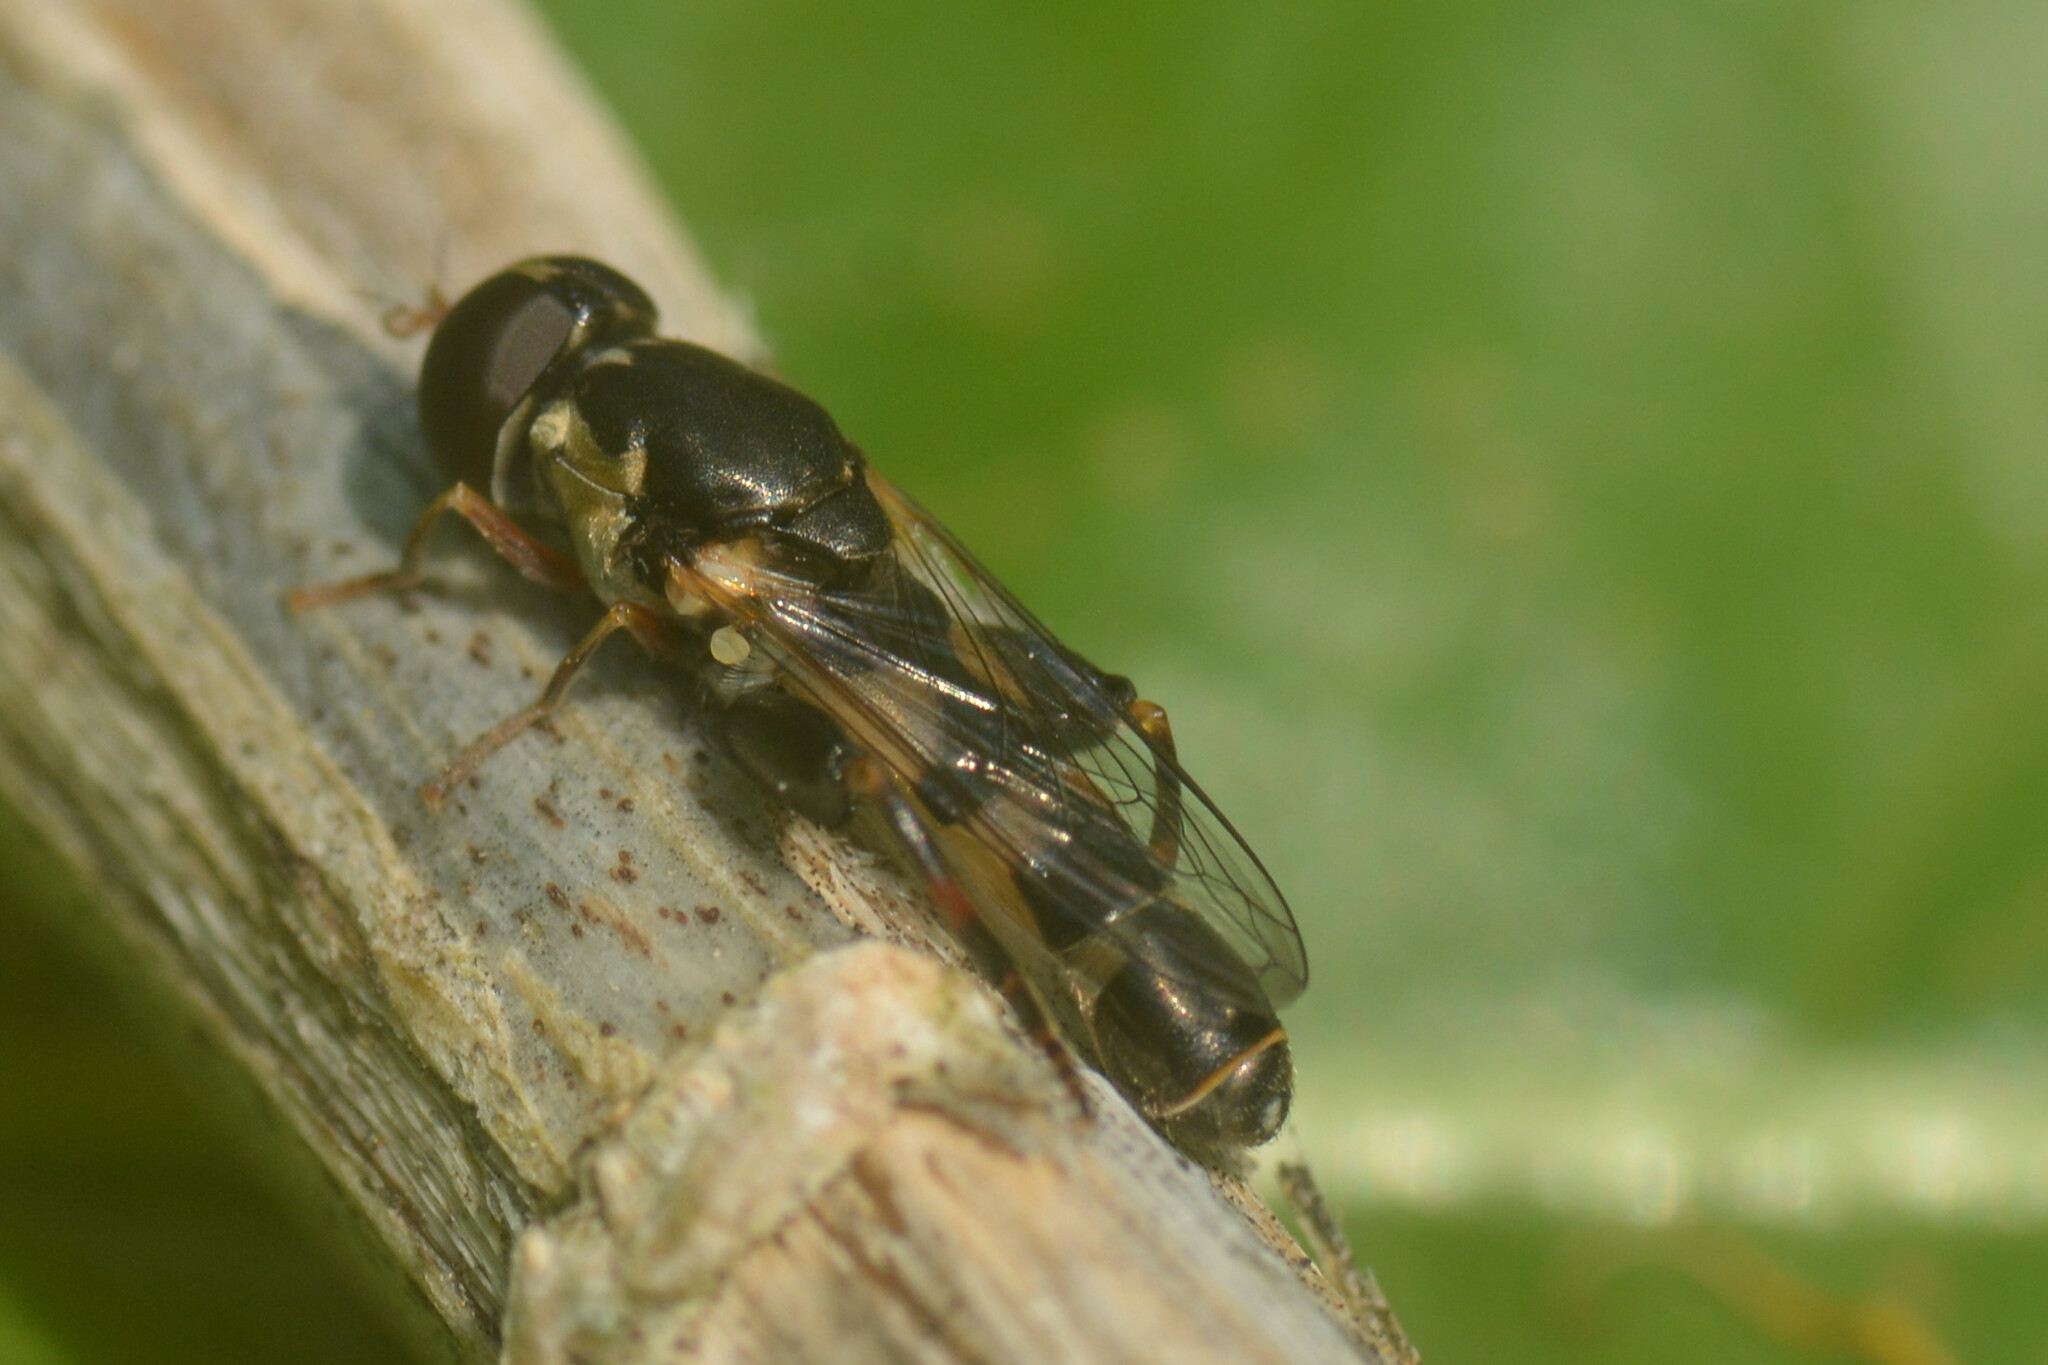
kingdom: Animalia
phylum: Arthropoda
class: Insecta
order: Diptera
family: Syrphidae
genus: Syritta
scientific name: Syritta pipiens
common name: Hover fly
